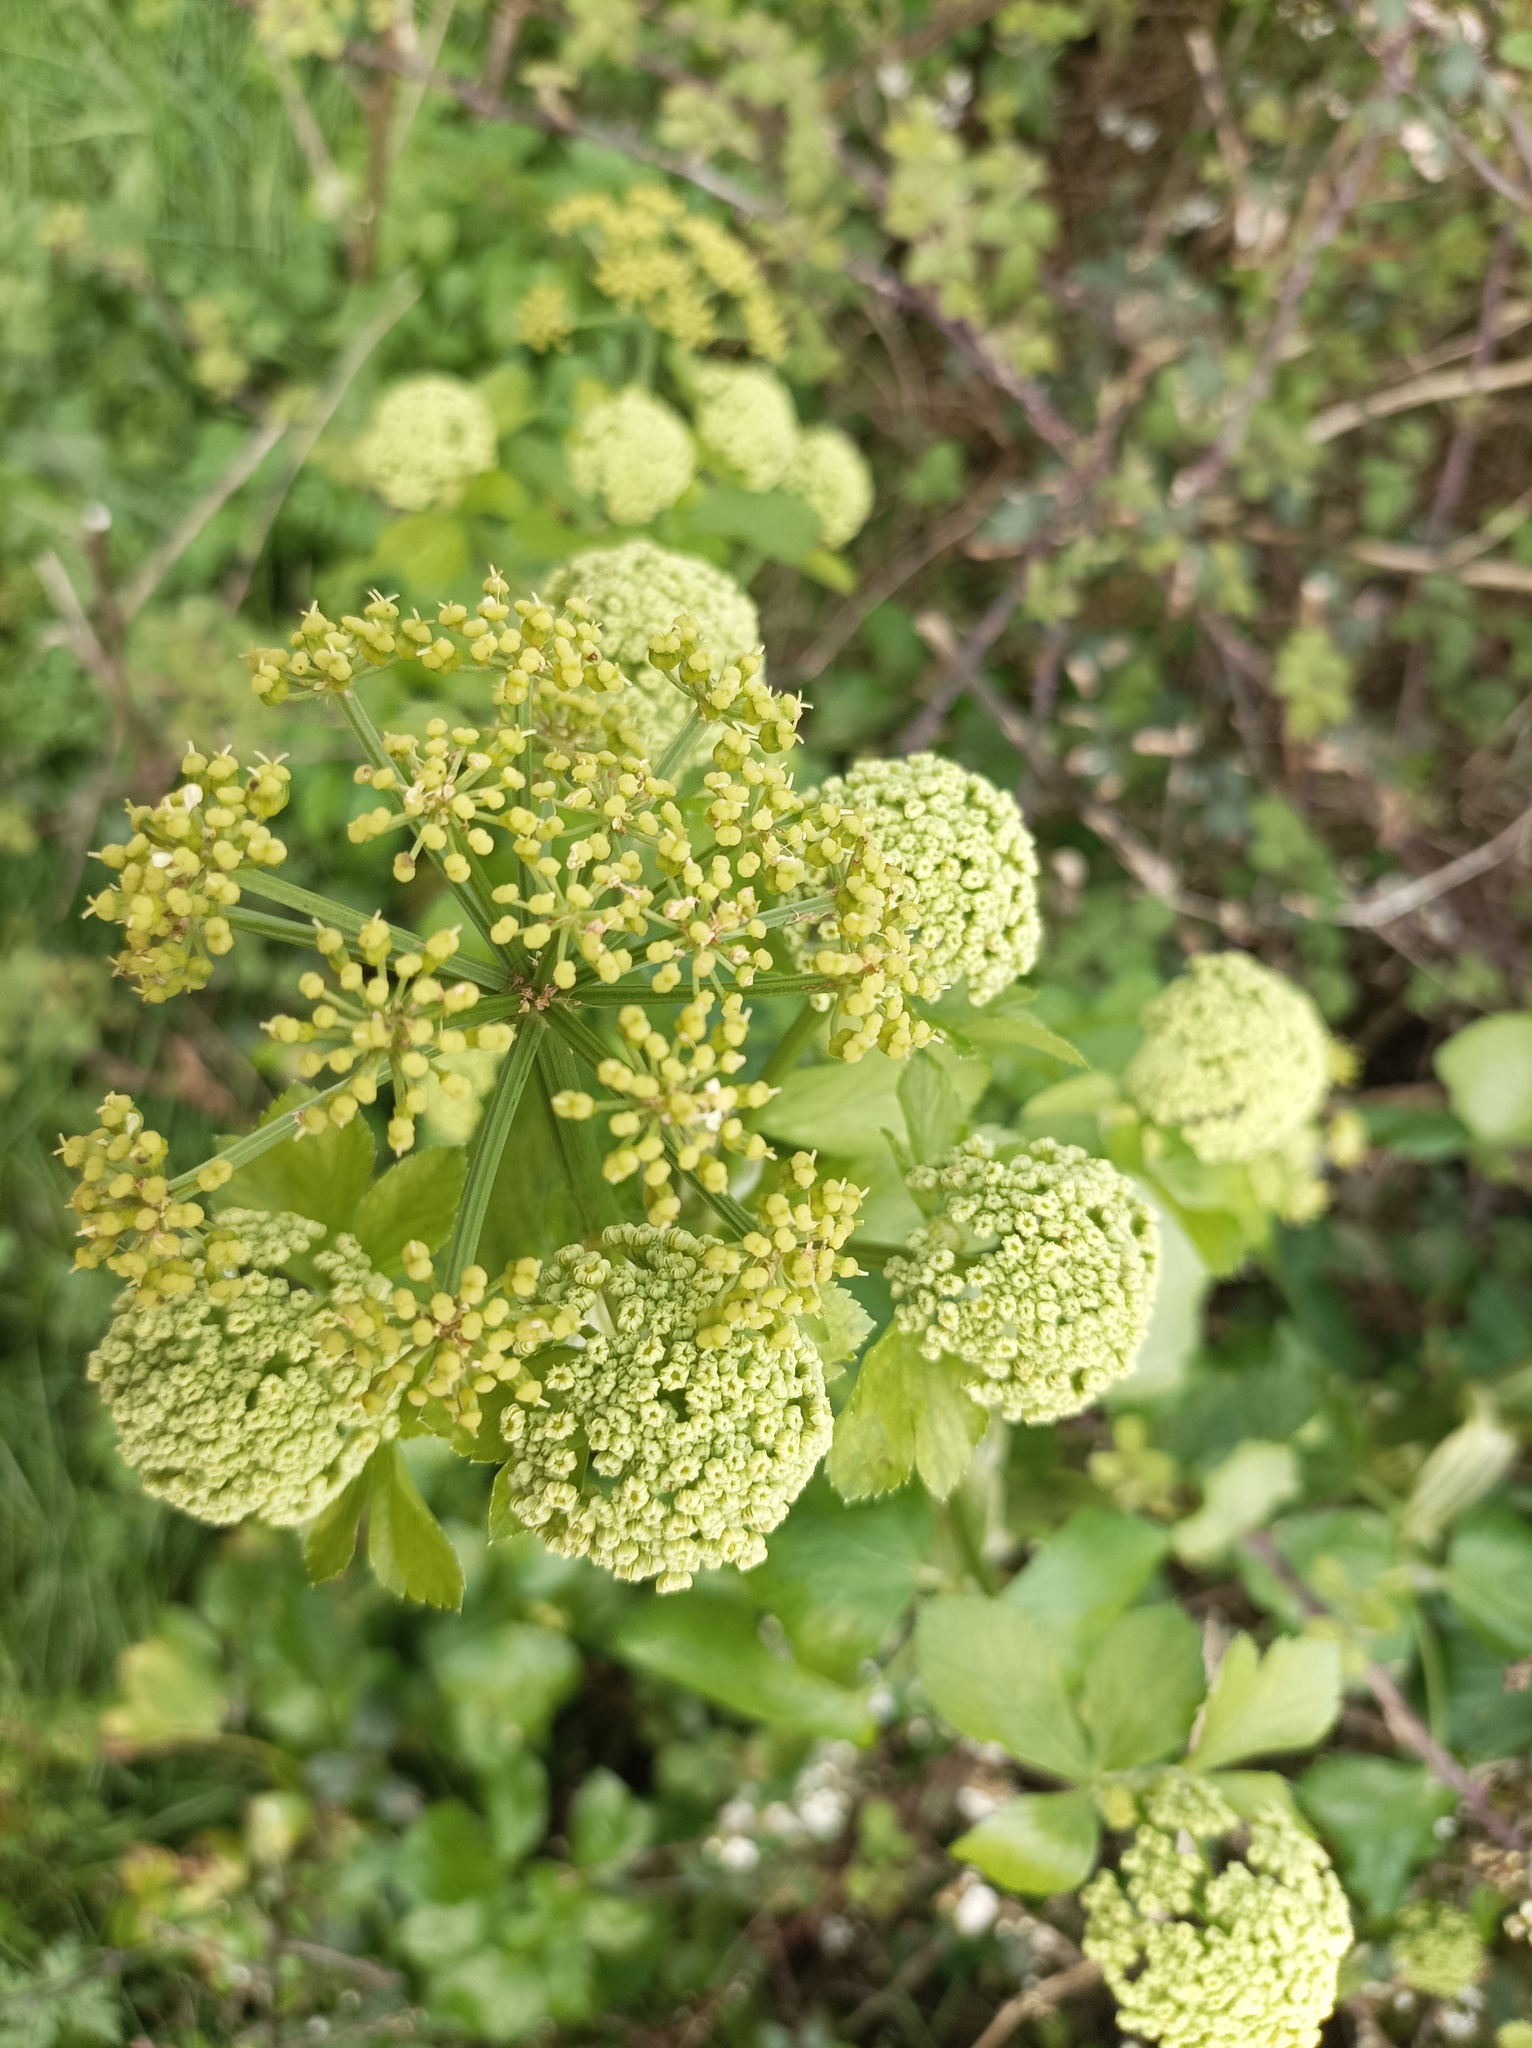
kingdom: Plantae
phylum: Tracheophyta
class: Magnoliopsida
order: Apiales
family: Apiaceae
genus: Smyrnium
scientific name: Smyrnium olusatrum
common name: Alexanders
